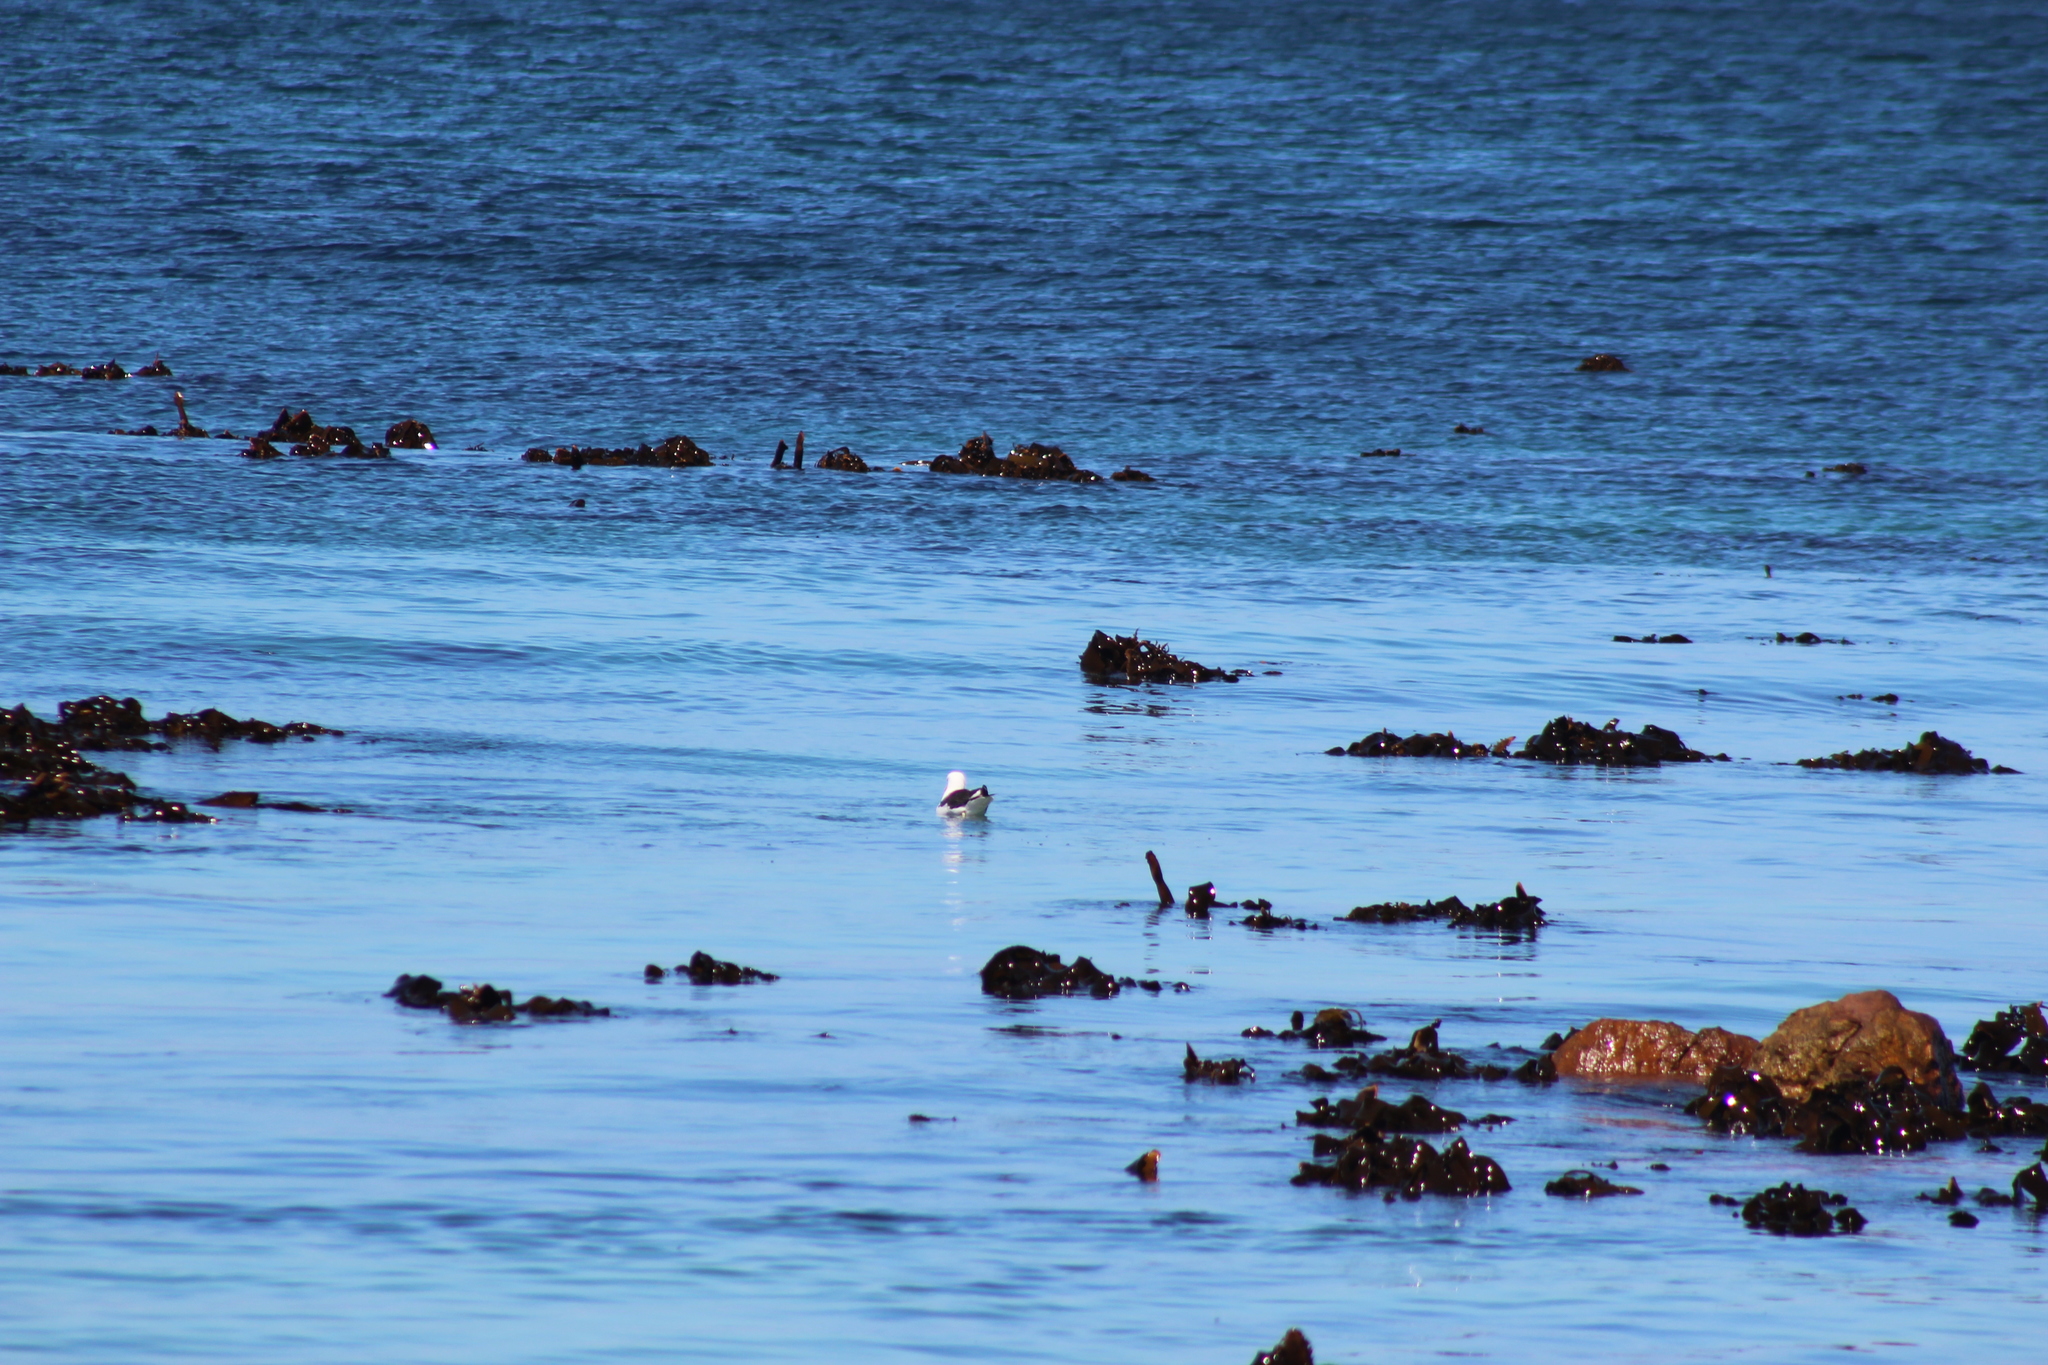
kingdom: Animalia
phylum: Chordata
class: Aves
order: Charadriiformes
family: Laridae
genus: Larus
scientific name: Larus dominicanus
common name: Kelp gull
